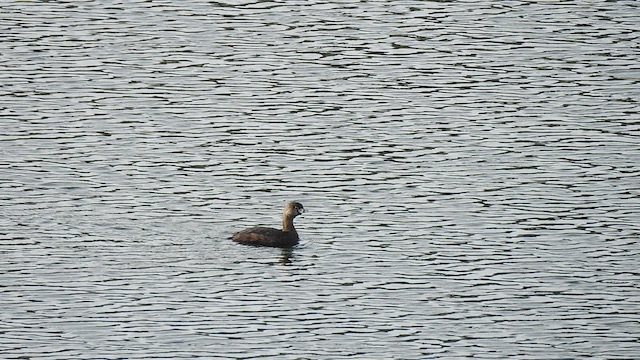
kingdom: Animalia
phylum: Chordata
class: Aves
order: Podicipediformes
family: Podicipedidae
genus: Podilymbus
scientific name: Podilymbus podiceps
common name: Pied-billed grebe
